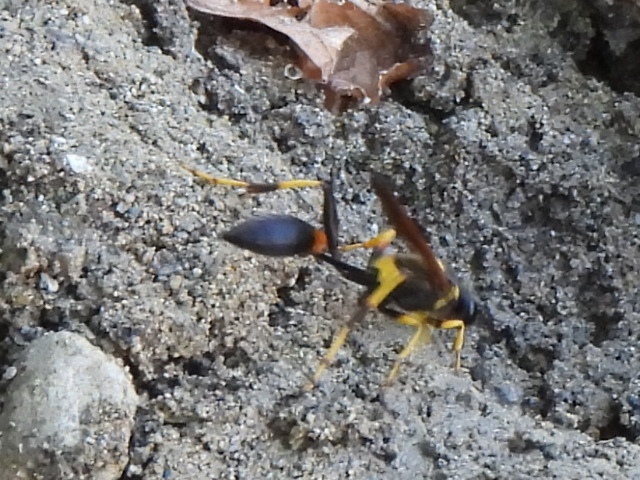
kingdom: Animalia
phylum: Arthropoda
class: Insecta
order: Hymenoptera
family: Sphecidae
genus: Sceliphron
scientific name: Sceliphron caementarium
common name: Mud dauber
